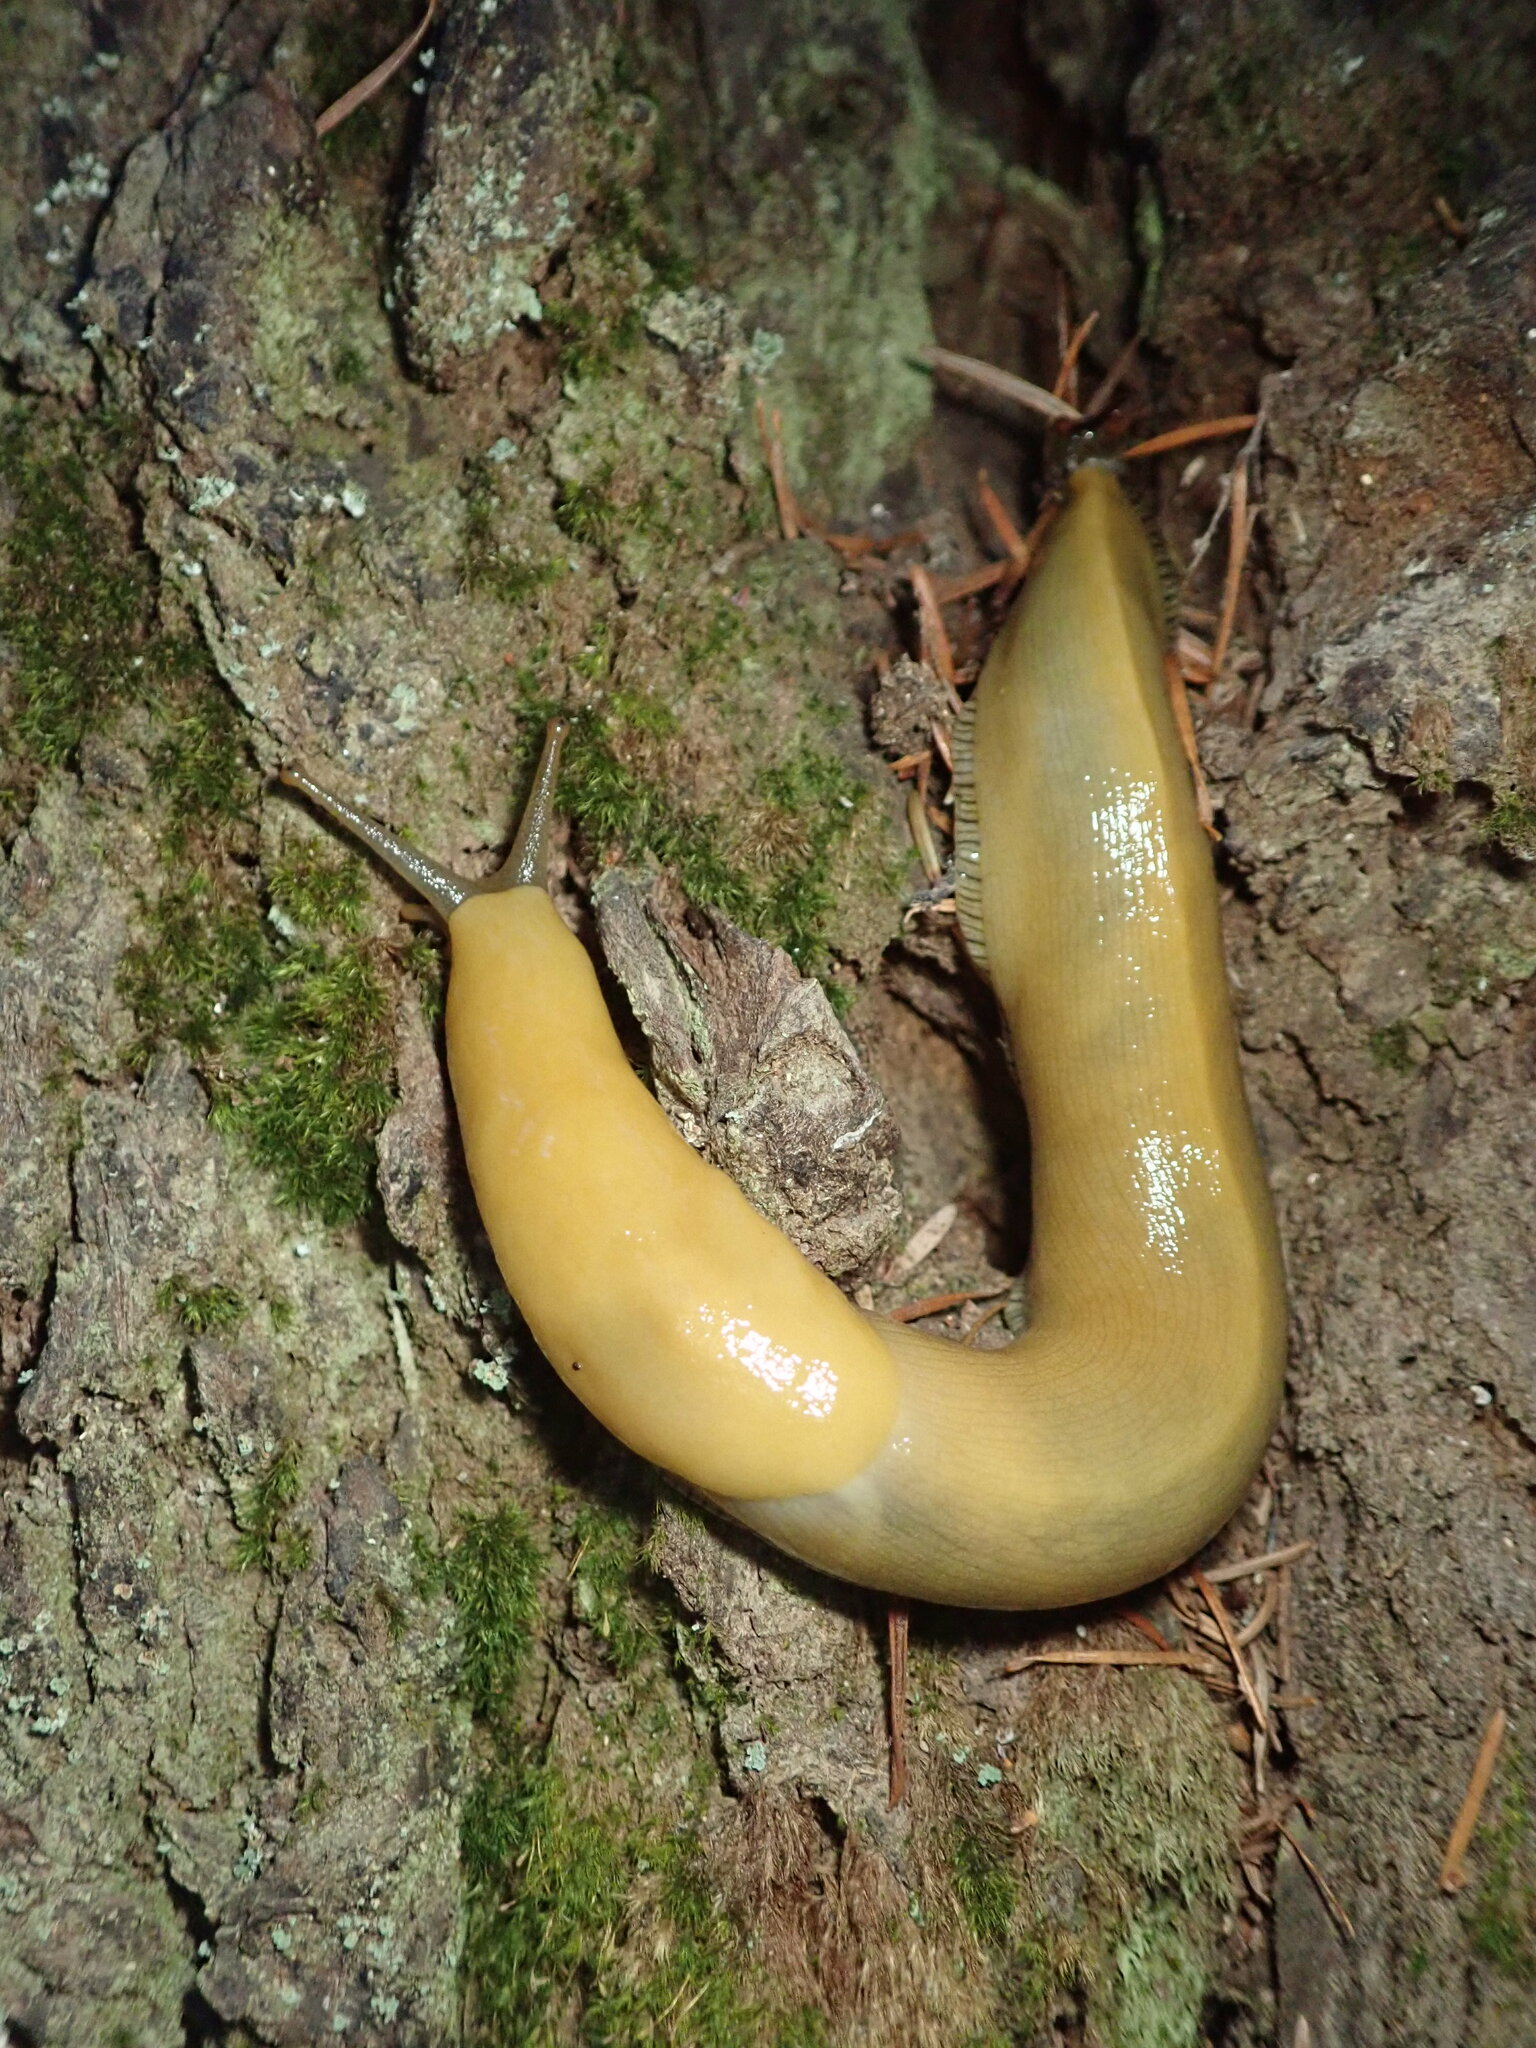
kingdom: Animalia
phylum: Mollusca
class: Gastropoda
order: Stylommatophora
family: Ariolimacidae
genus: Ariolimax
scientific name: Ariolimax buttoni
